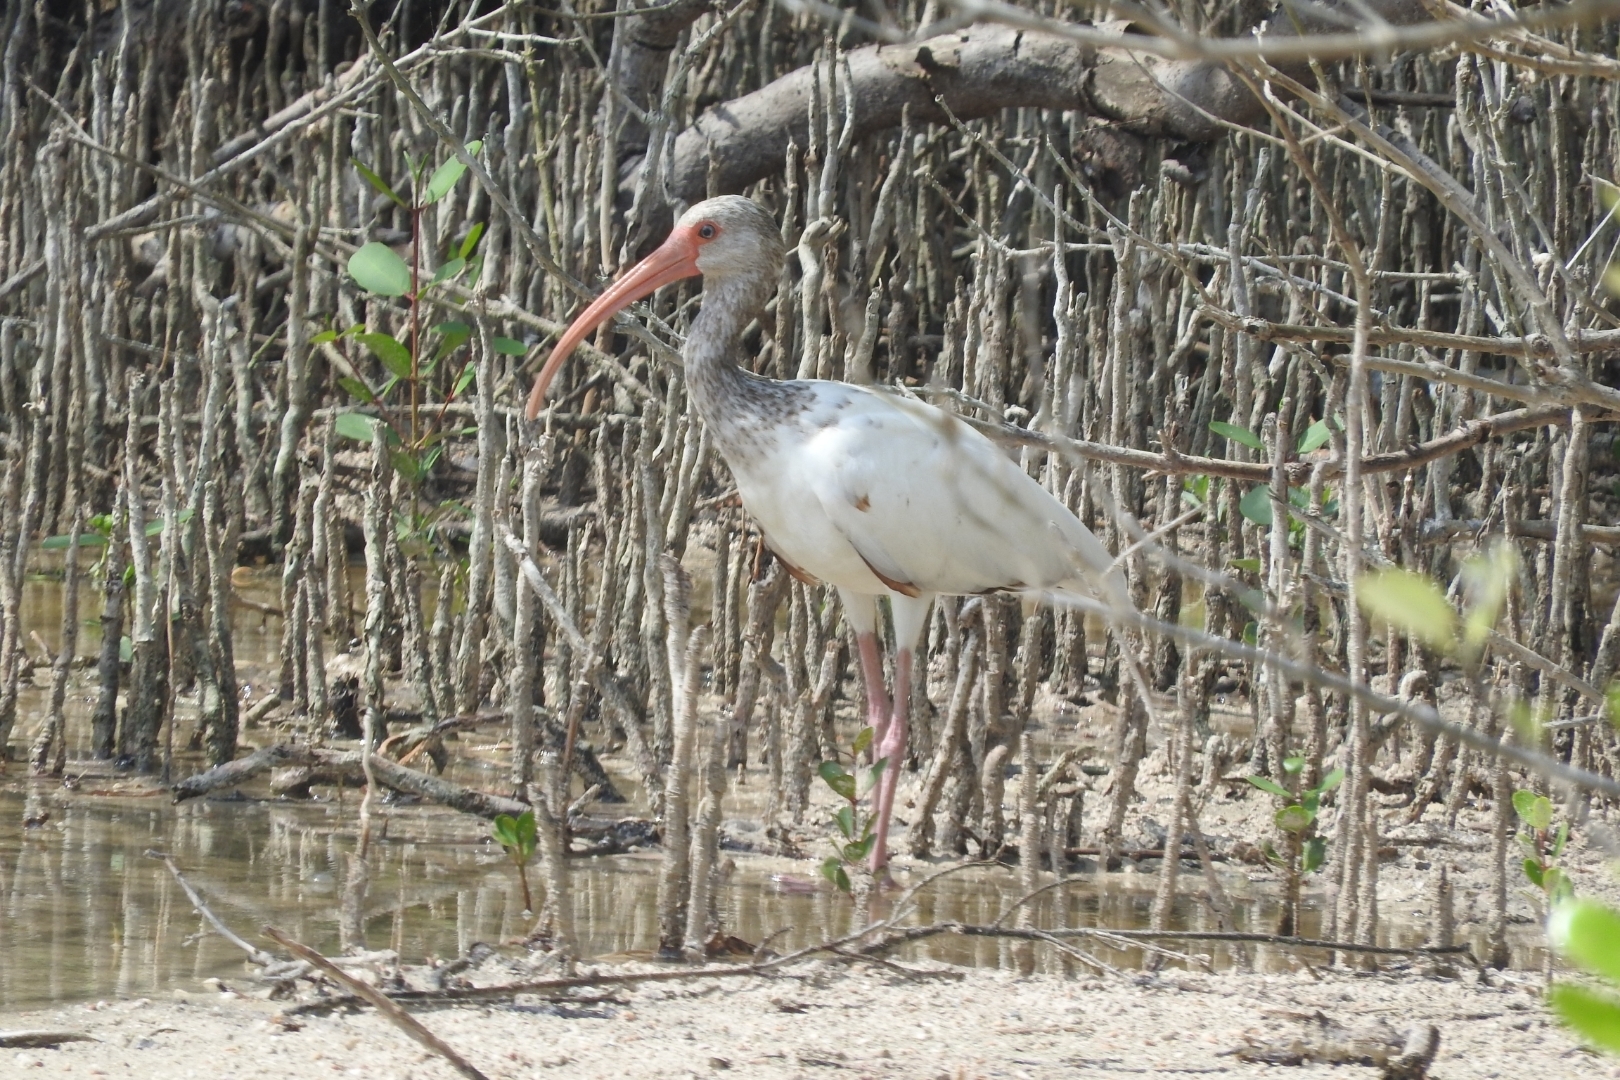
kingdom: Animalia
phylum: Chordata
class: Aves
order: Pelecaniformes
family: Threskiornithidae
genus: Eudocimus
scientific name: Eudocimus albus
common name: White ibis
